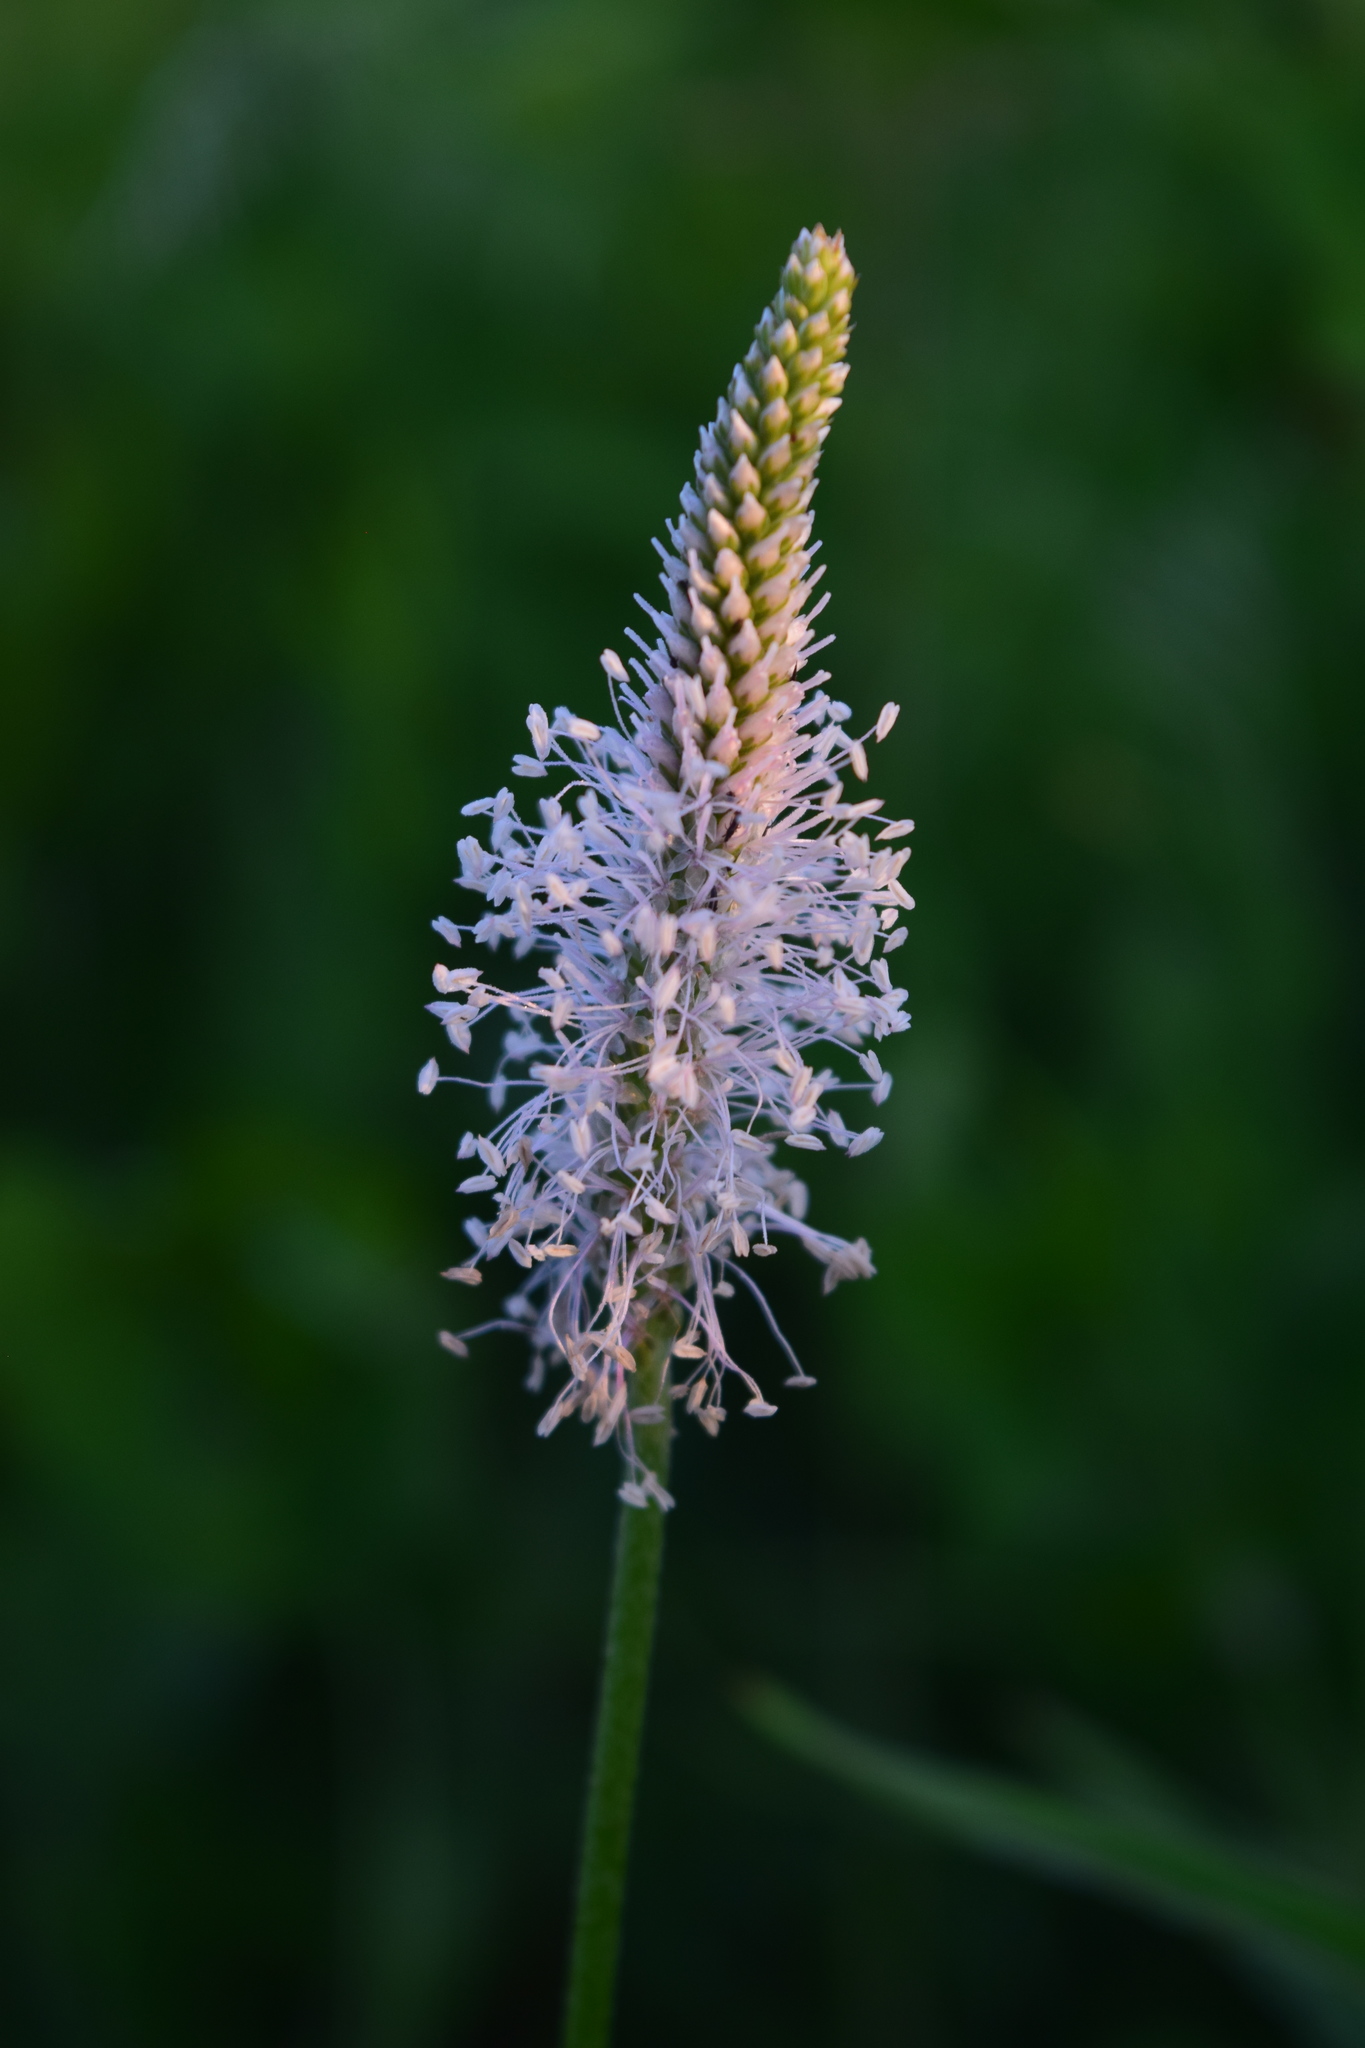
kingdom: Plantae
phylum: Tracheophyta
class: Magnoliopsida
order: Lamiales
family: Plantaginaceae
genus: Plantago
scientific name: Plantago media
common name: Hoary plantain
